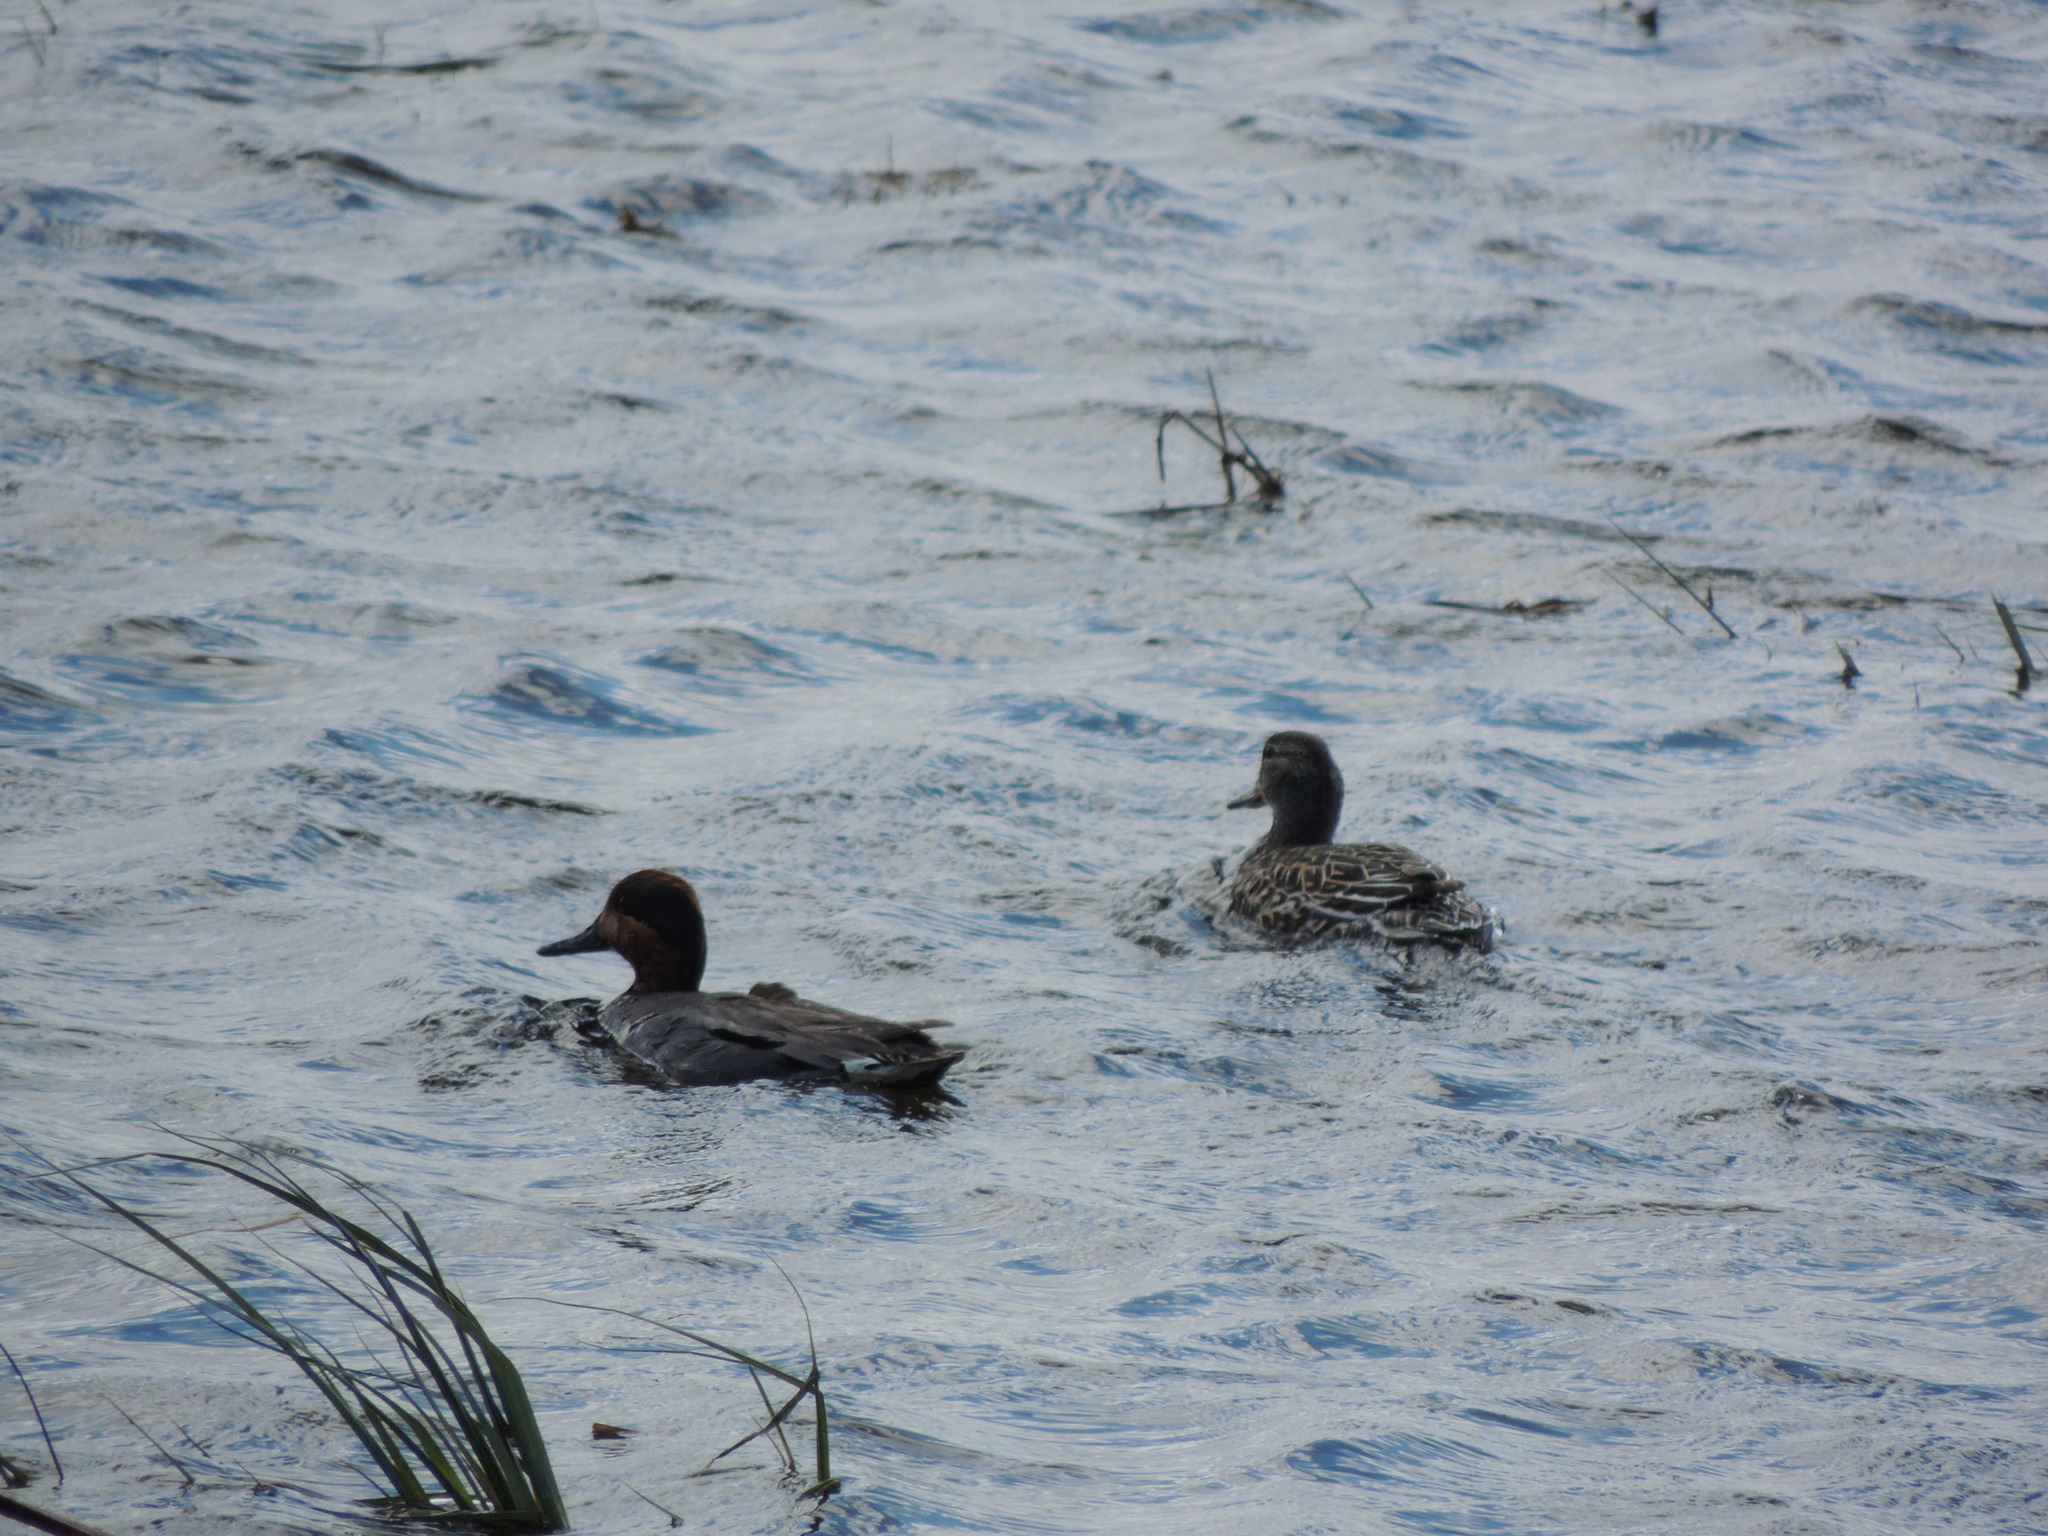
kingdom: Animalia
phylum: Chordata
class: Aves
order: Anseriformes
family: Anatidae
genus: Anas
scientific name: Anas crecca
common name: Eurasian teal
